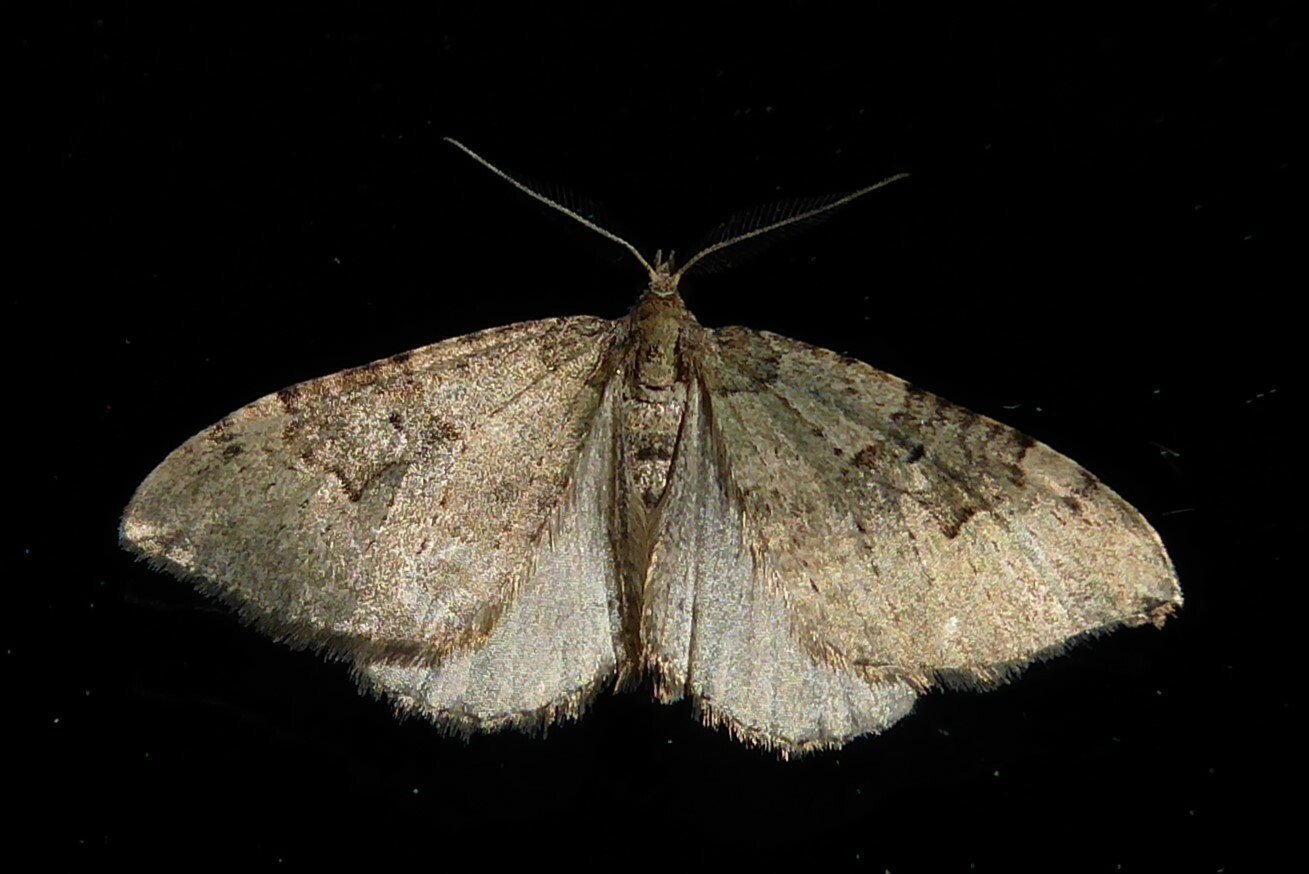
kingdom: Animalia
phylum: Arthropoda
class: Insecta
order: Lepidoptera
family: Geometridae
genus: Epyaxa
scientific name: Epyaxa rosearia
